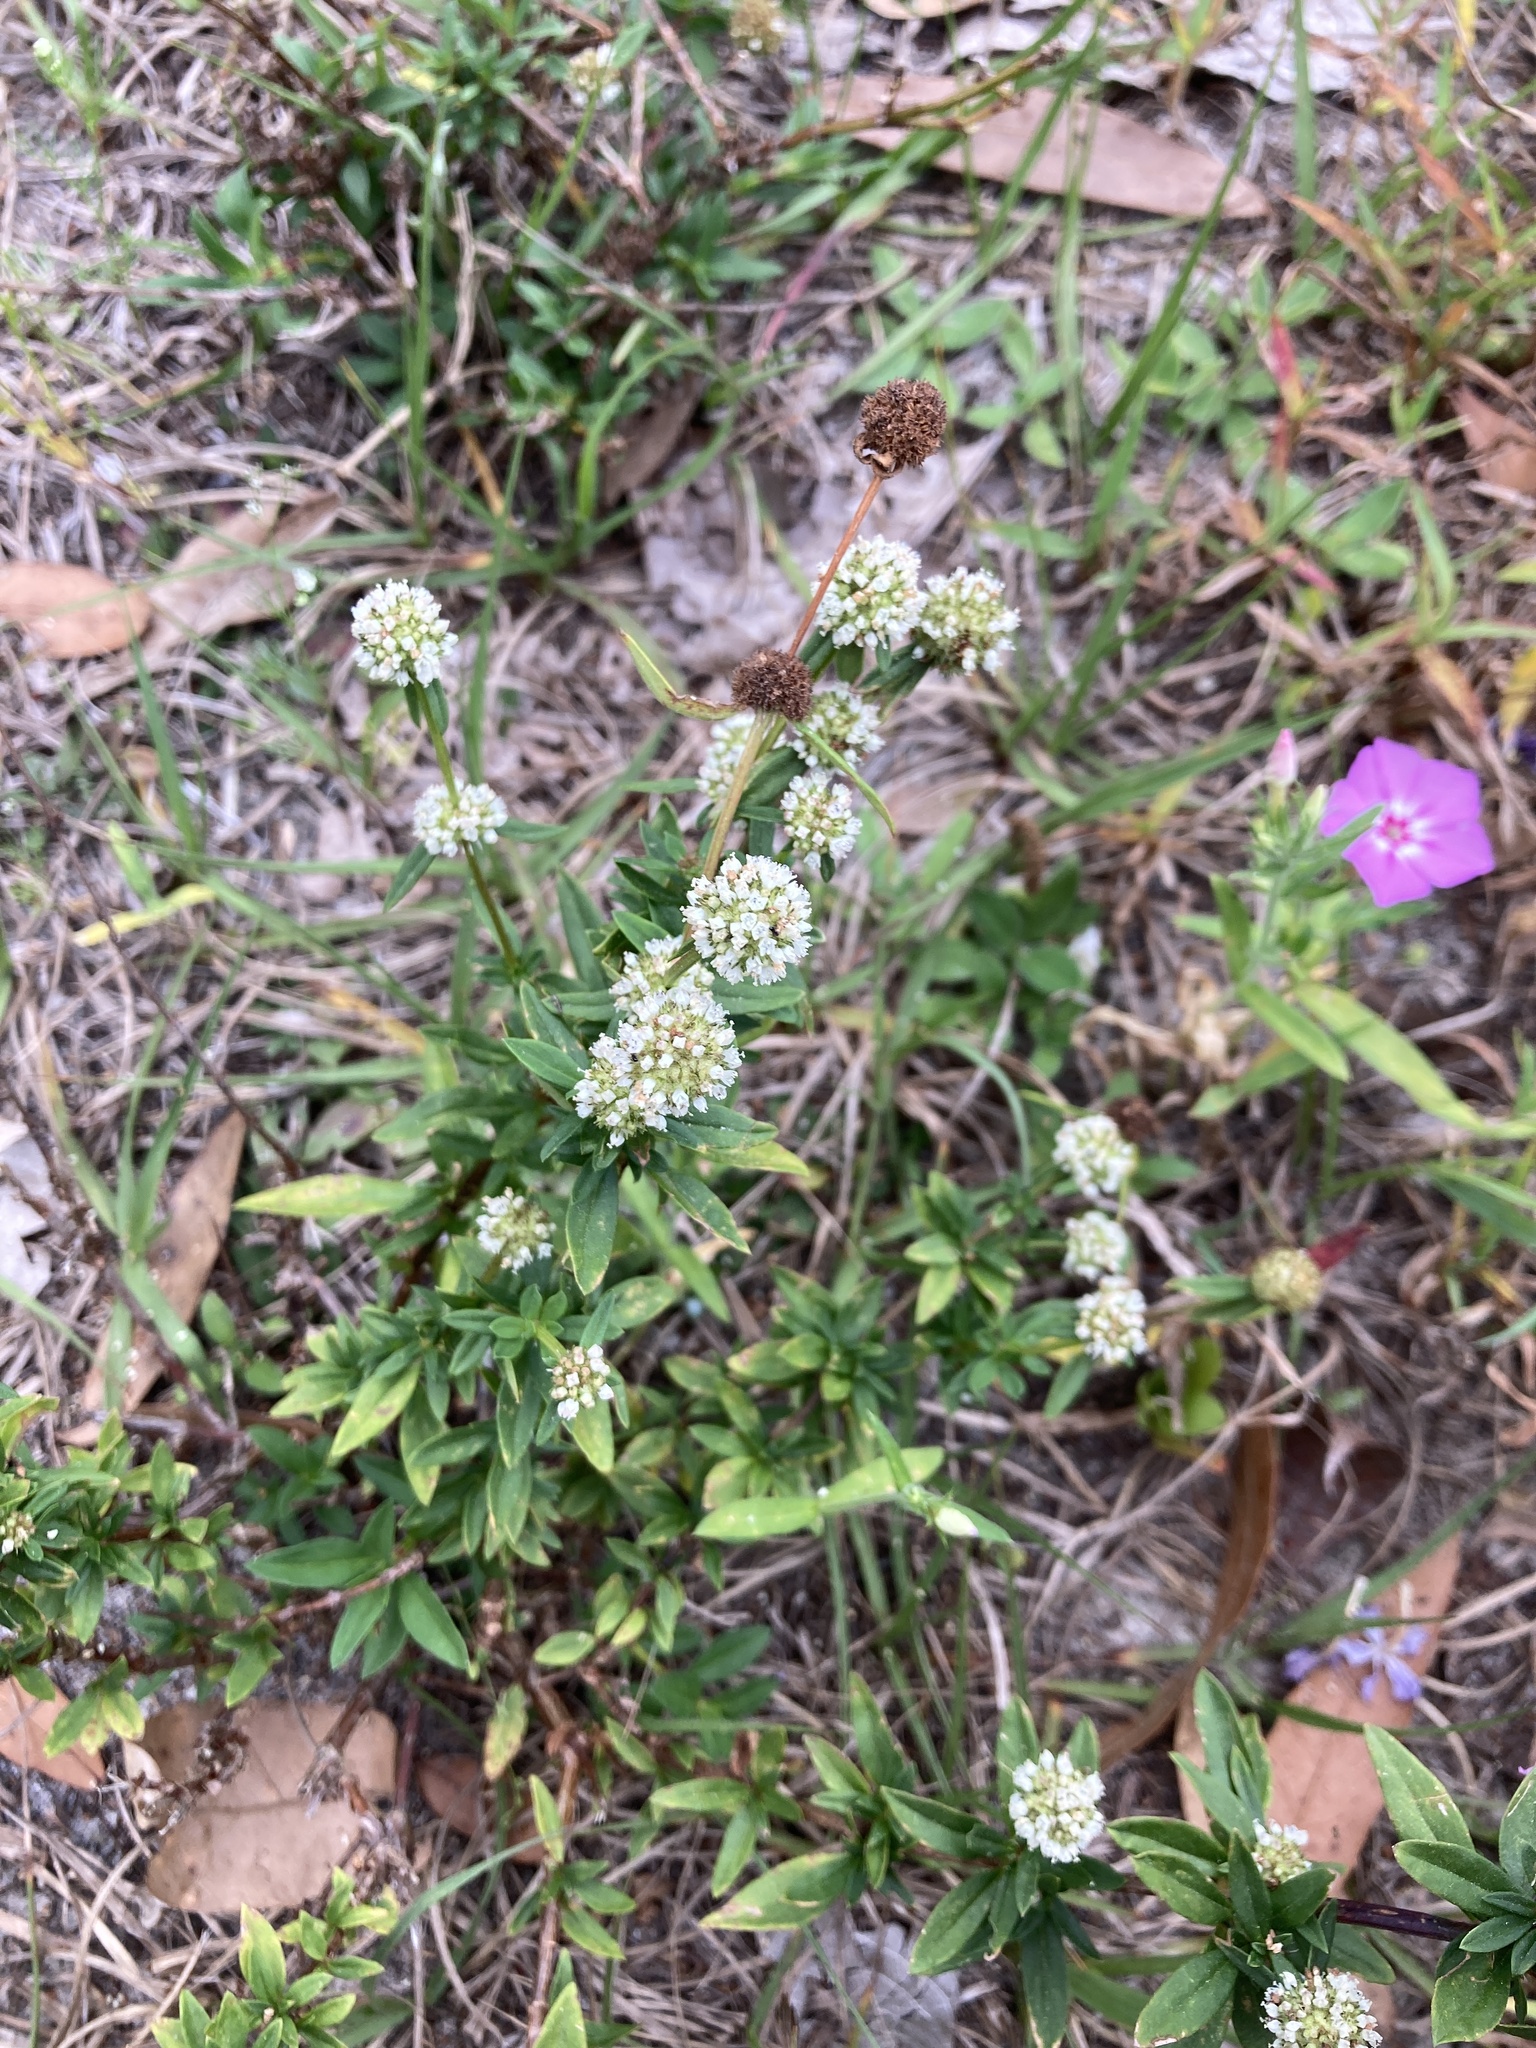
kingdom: Plantae
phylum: Tracheophyta
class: Magnoliopsida
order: Gentianales
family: Rubiaceae
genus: Spermacoce
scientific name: Spermacoce verticillata
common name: Shrubby false buttonweed
